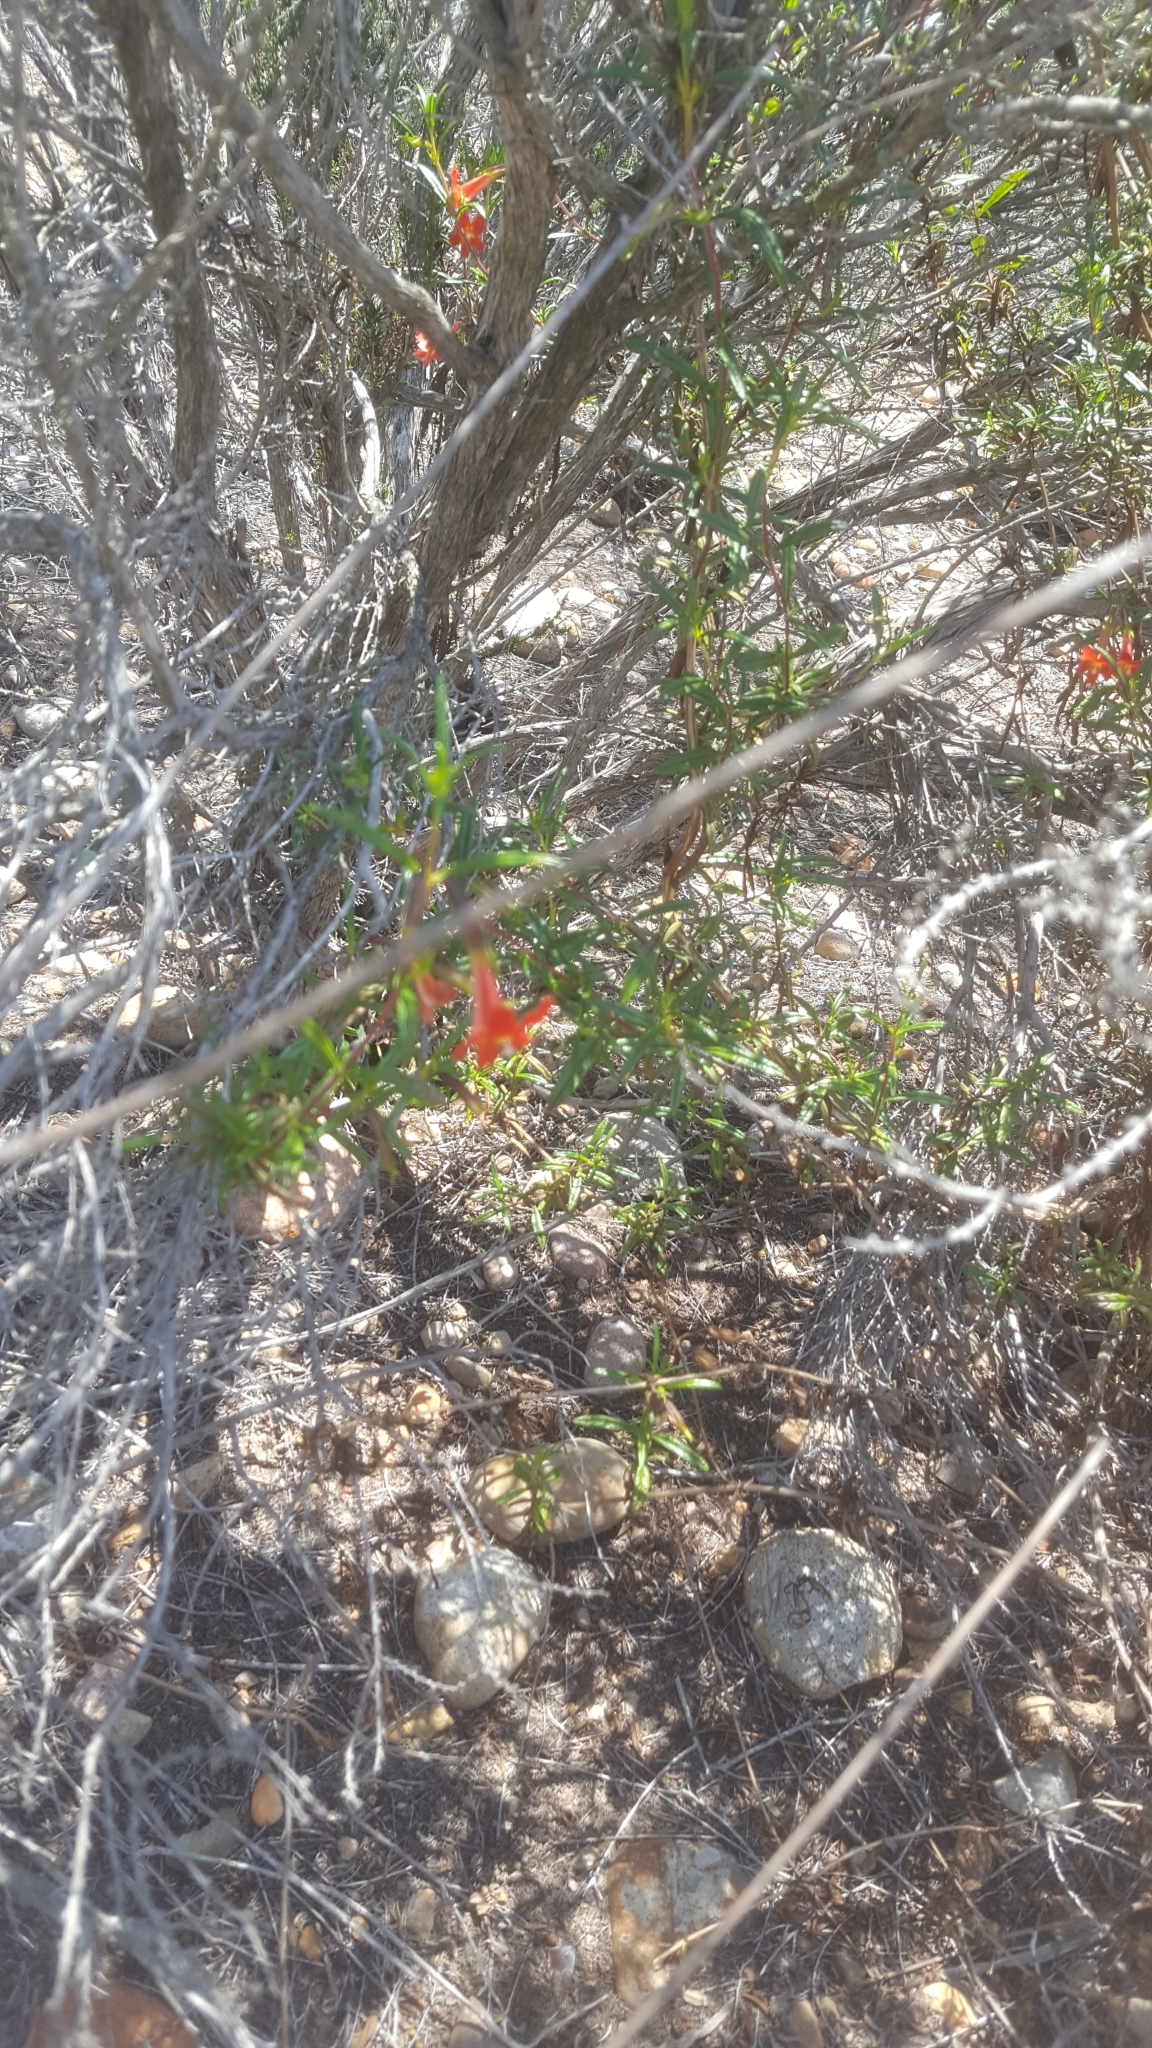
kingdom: Plantae
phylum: Tracheophyta
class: Magnoliopsida
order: Lamiales
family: Phrymaceae
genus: Diplacus
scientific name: Diplacus puniceus
